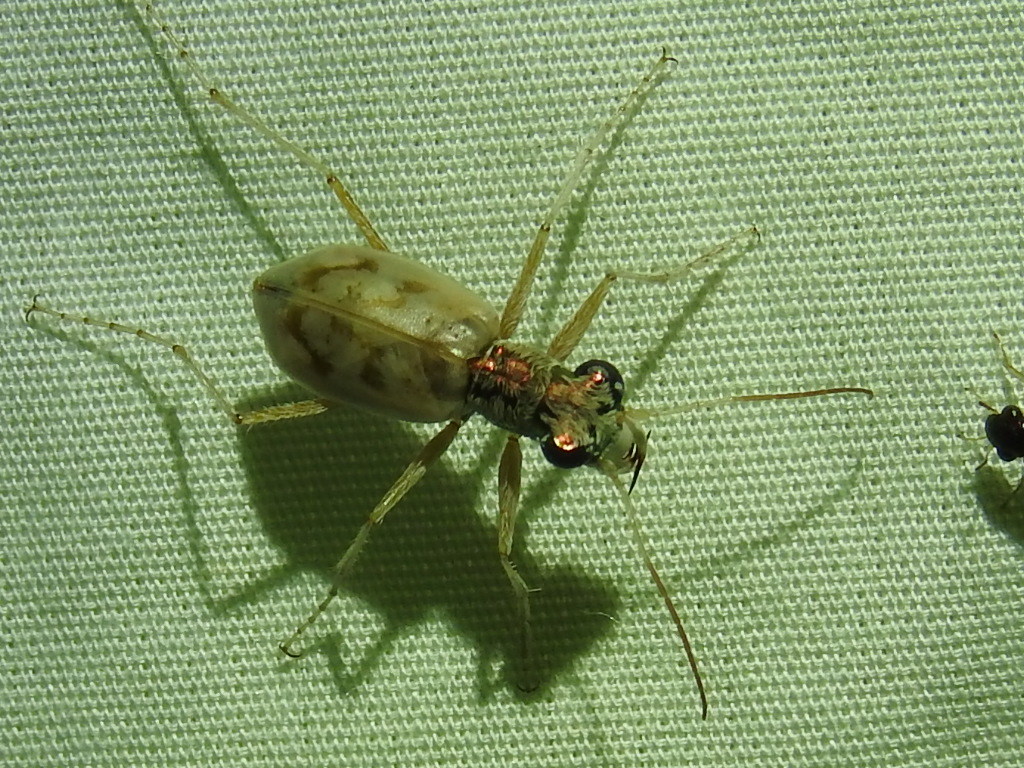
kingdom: Animalia
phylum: Arthropoda
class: Insecta
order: Coleoptera
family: Carabidae
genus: Ellipsoptera
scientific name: Ellipsoptera lepida
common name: Ghost tiger beetle
